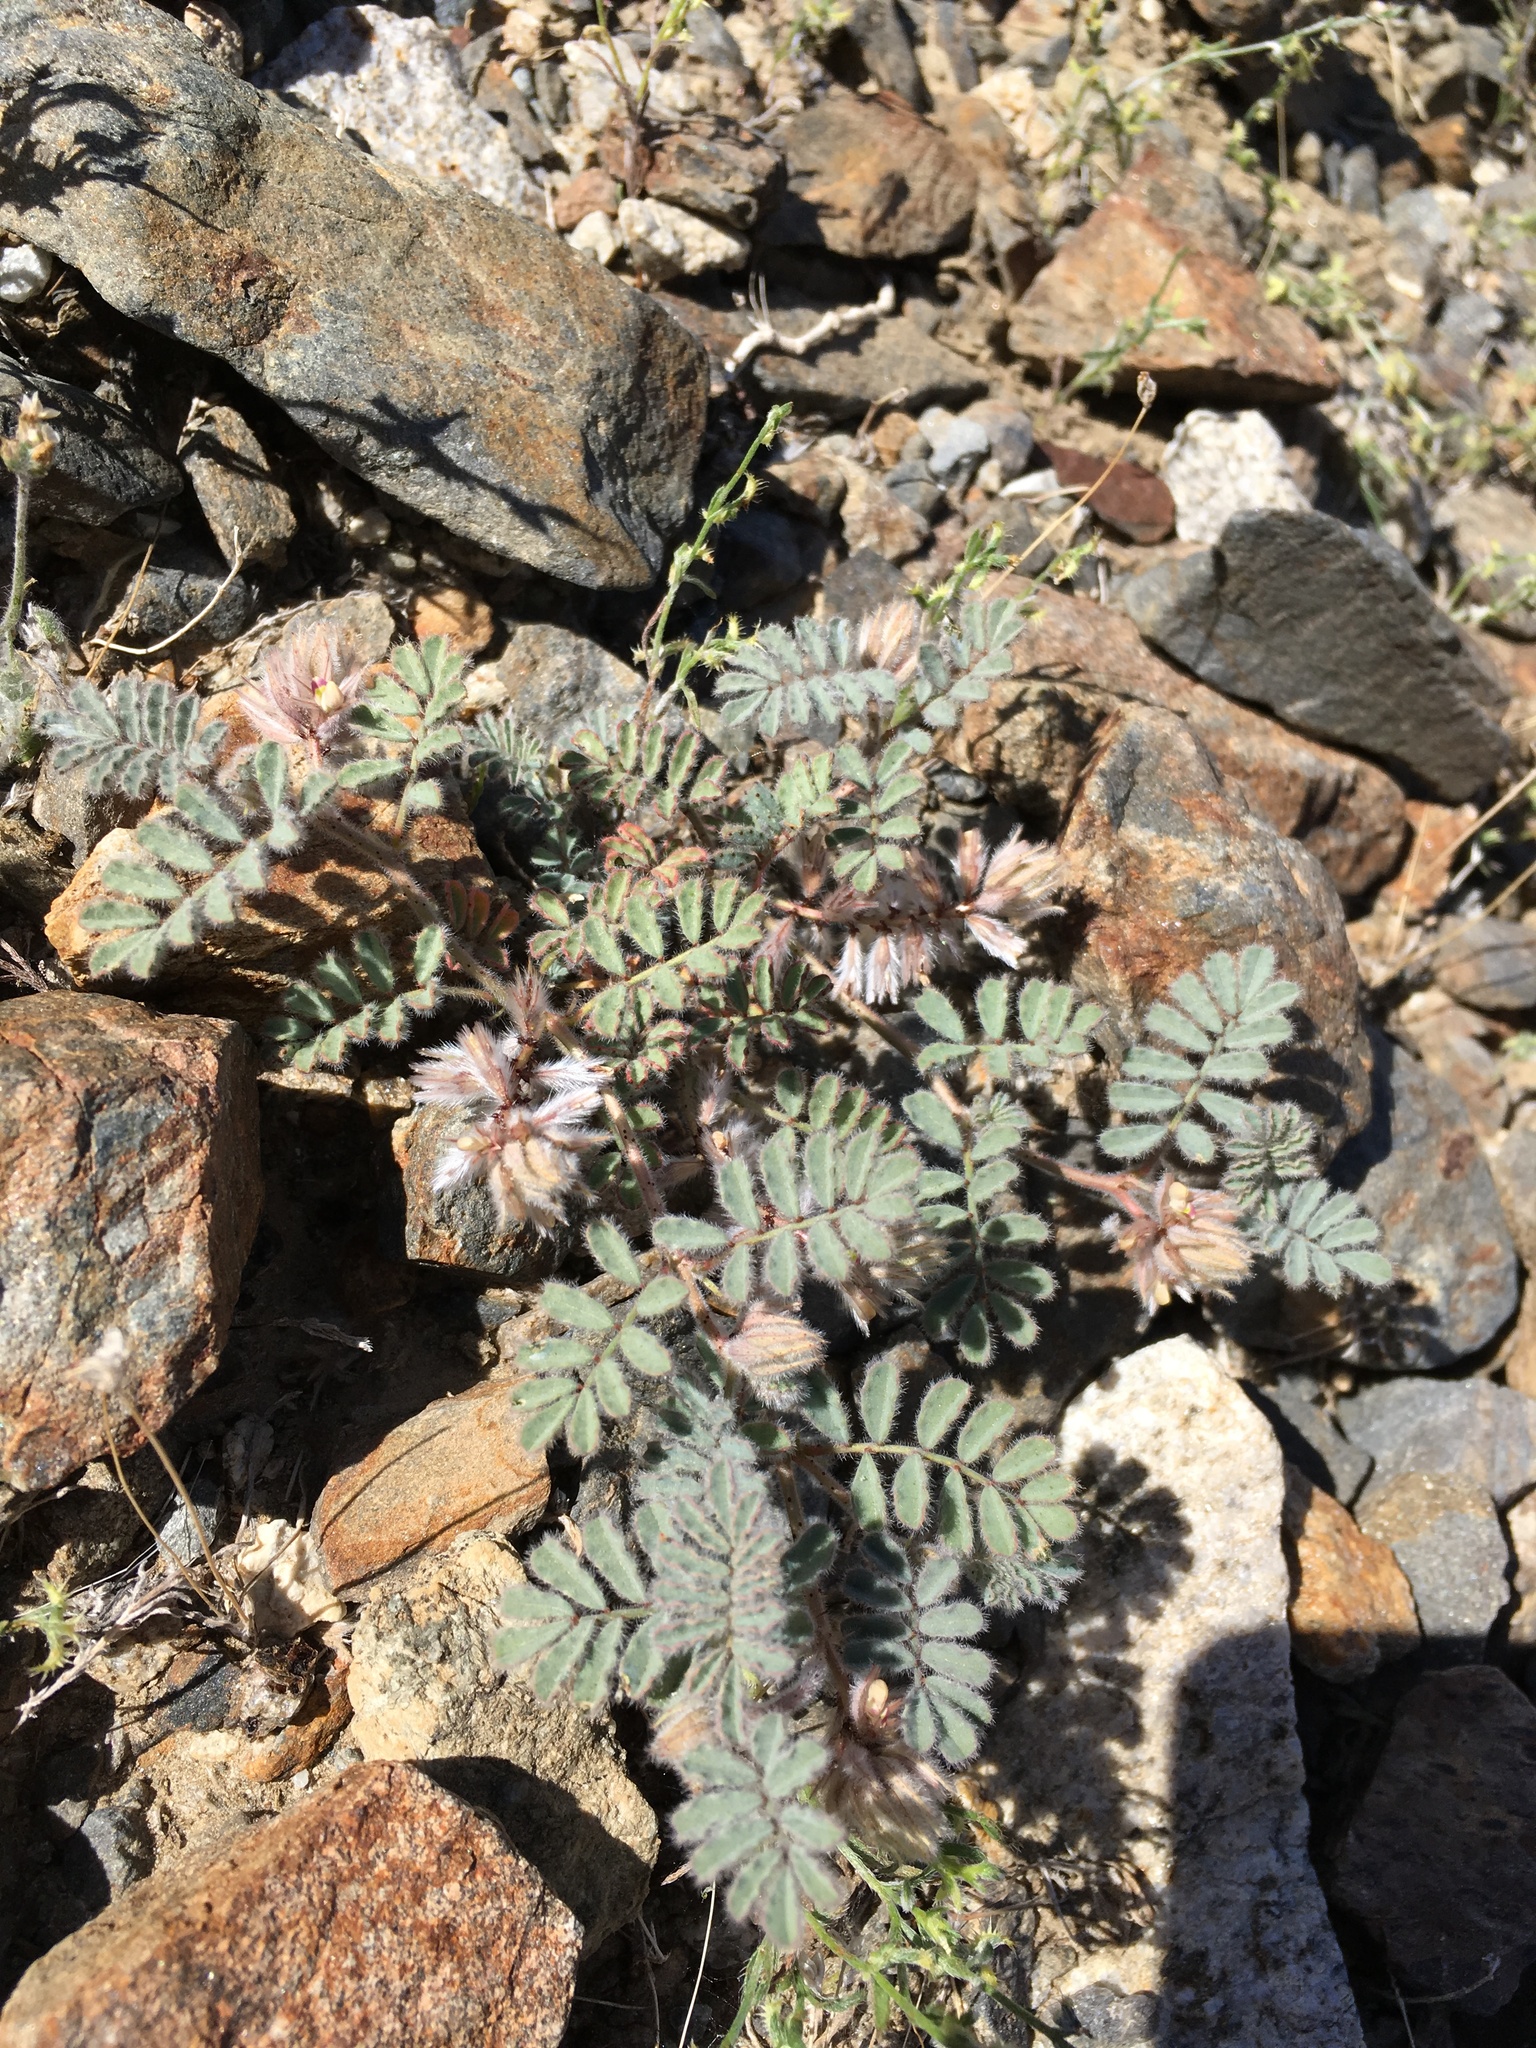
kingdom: Plantae
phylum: Tracheophyta
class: Magnoliopsida
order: Fabales
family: Fabaceae
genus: Dalea
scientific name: Dalea mollissima
